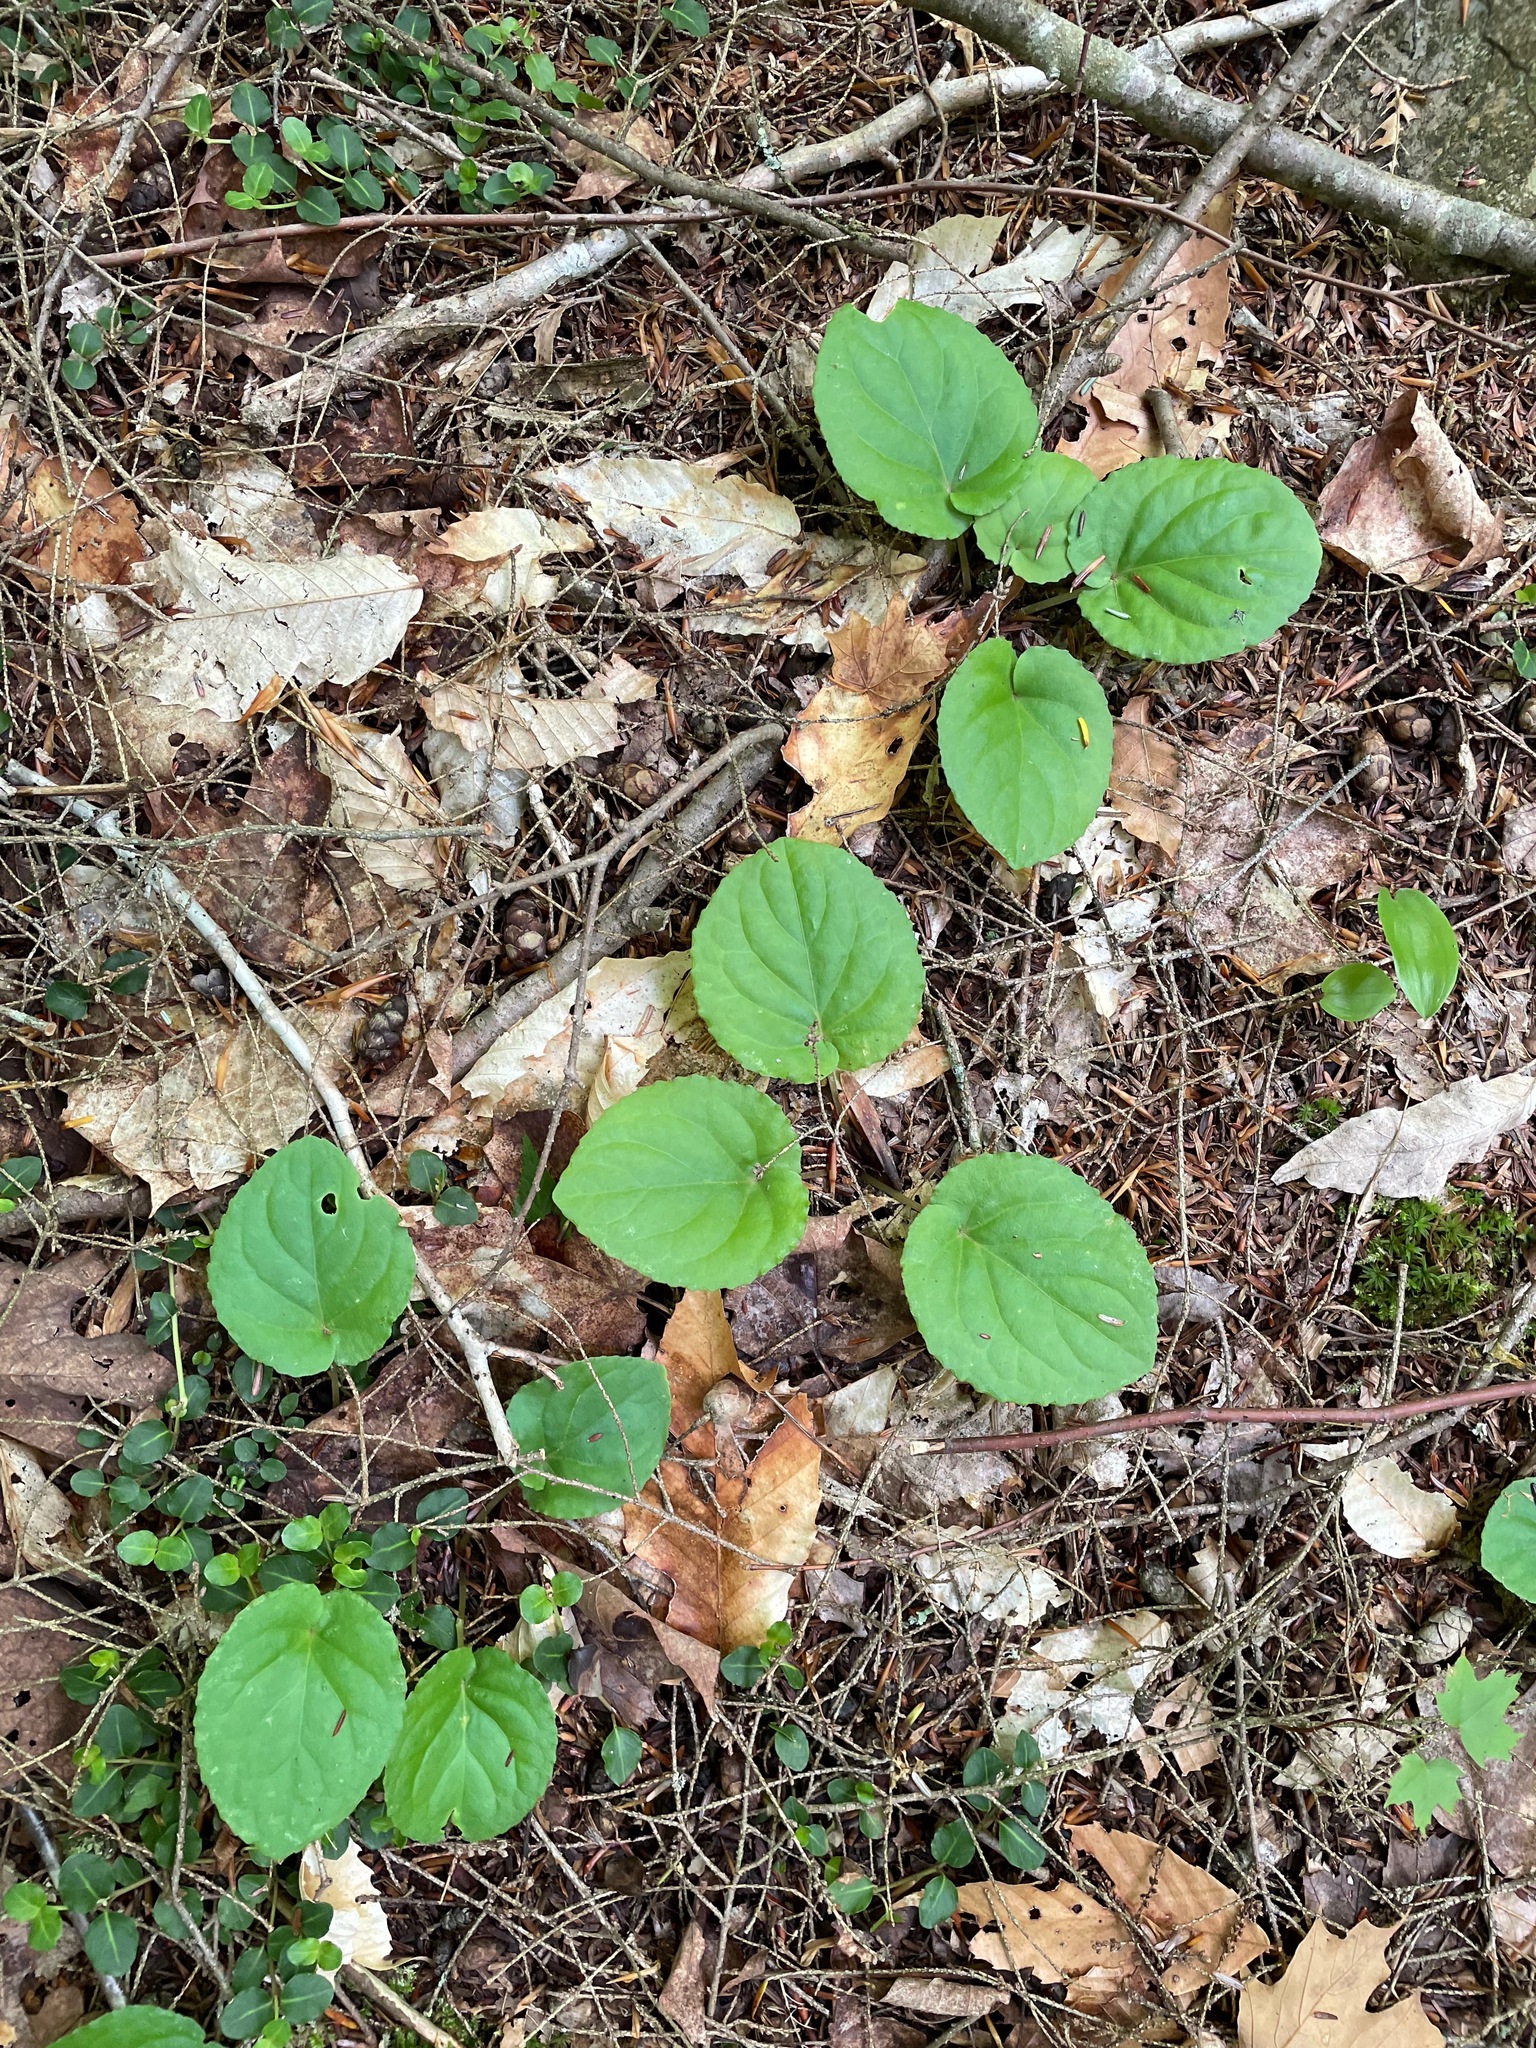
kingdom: Plantae
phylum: Tracheophyta
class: Magnoliopsida
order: Malpighiales
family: Violaceae
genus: Viola
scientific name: Viola rotundifolia
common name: Early yellow violet
